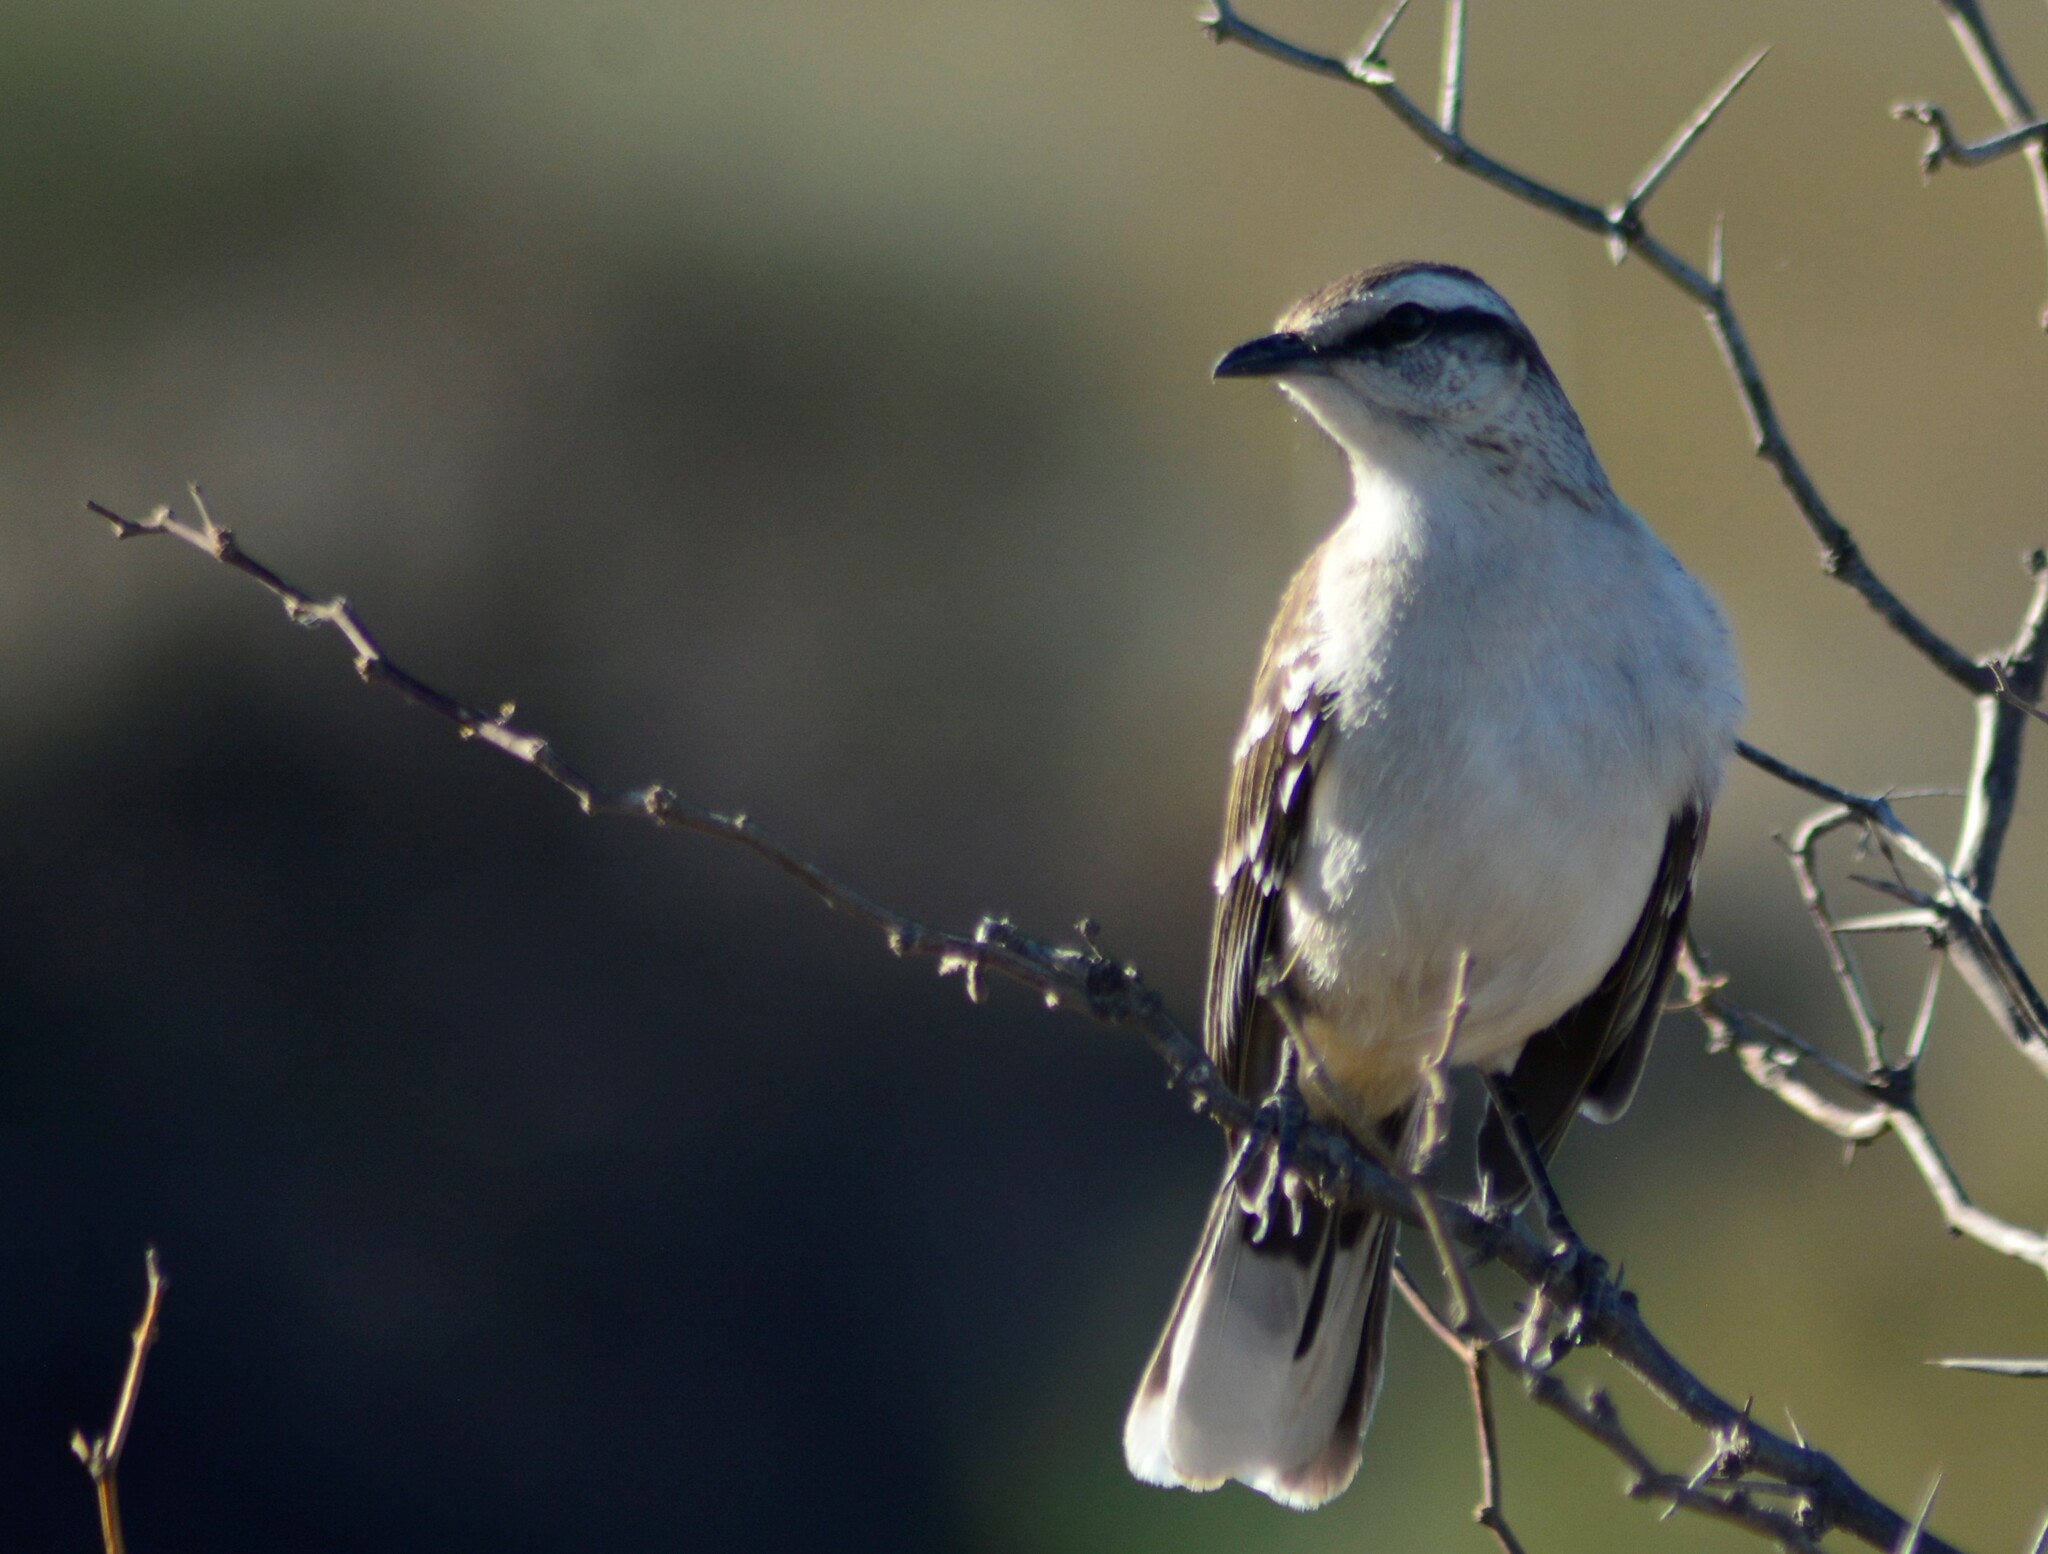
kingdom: Animalia
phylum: Chordata
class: Aves
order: Passeriformes
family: Mimidae
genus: Mimus
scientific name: Mimus saturninus
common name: Chalk-browed mockingbird
